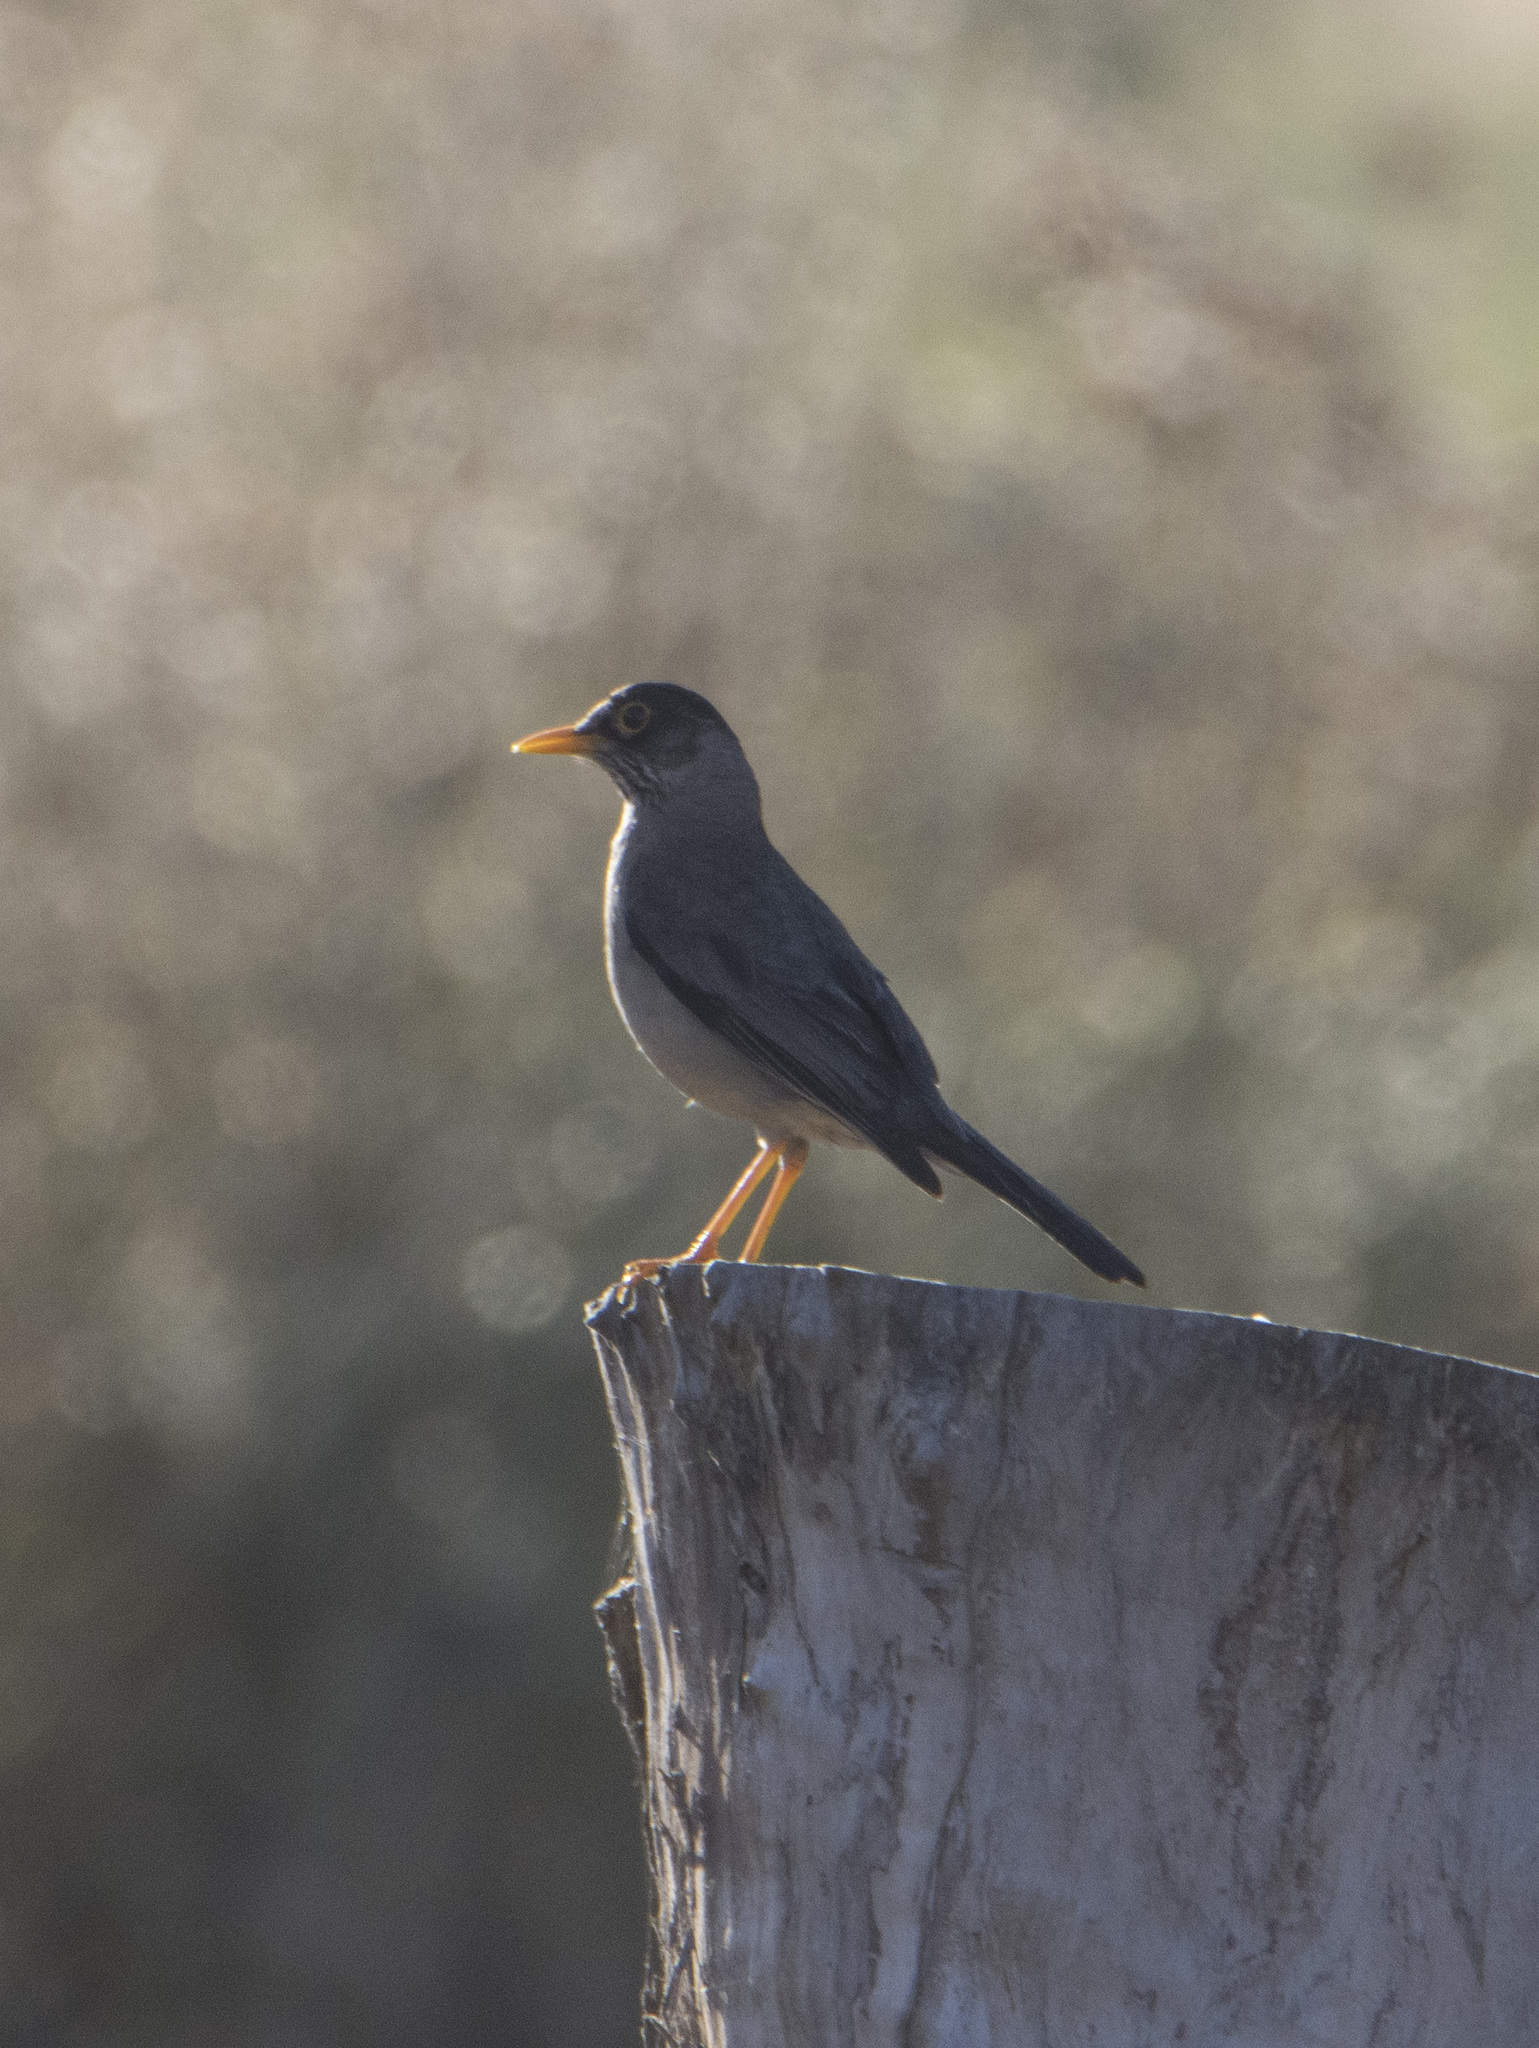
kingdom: Animalia
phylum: Chordata
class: Aves
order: Passeriformes
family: Turdidae
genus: Turdus
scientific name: Turdus falcklandii
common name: Austral thrush
